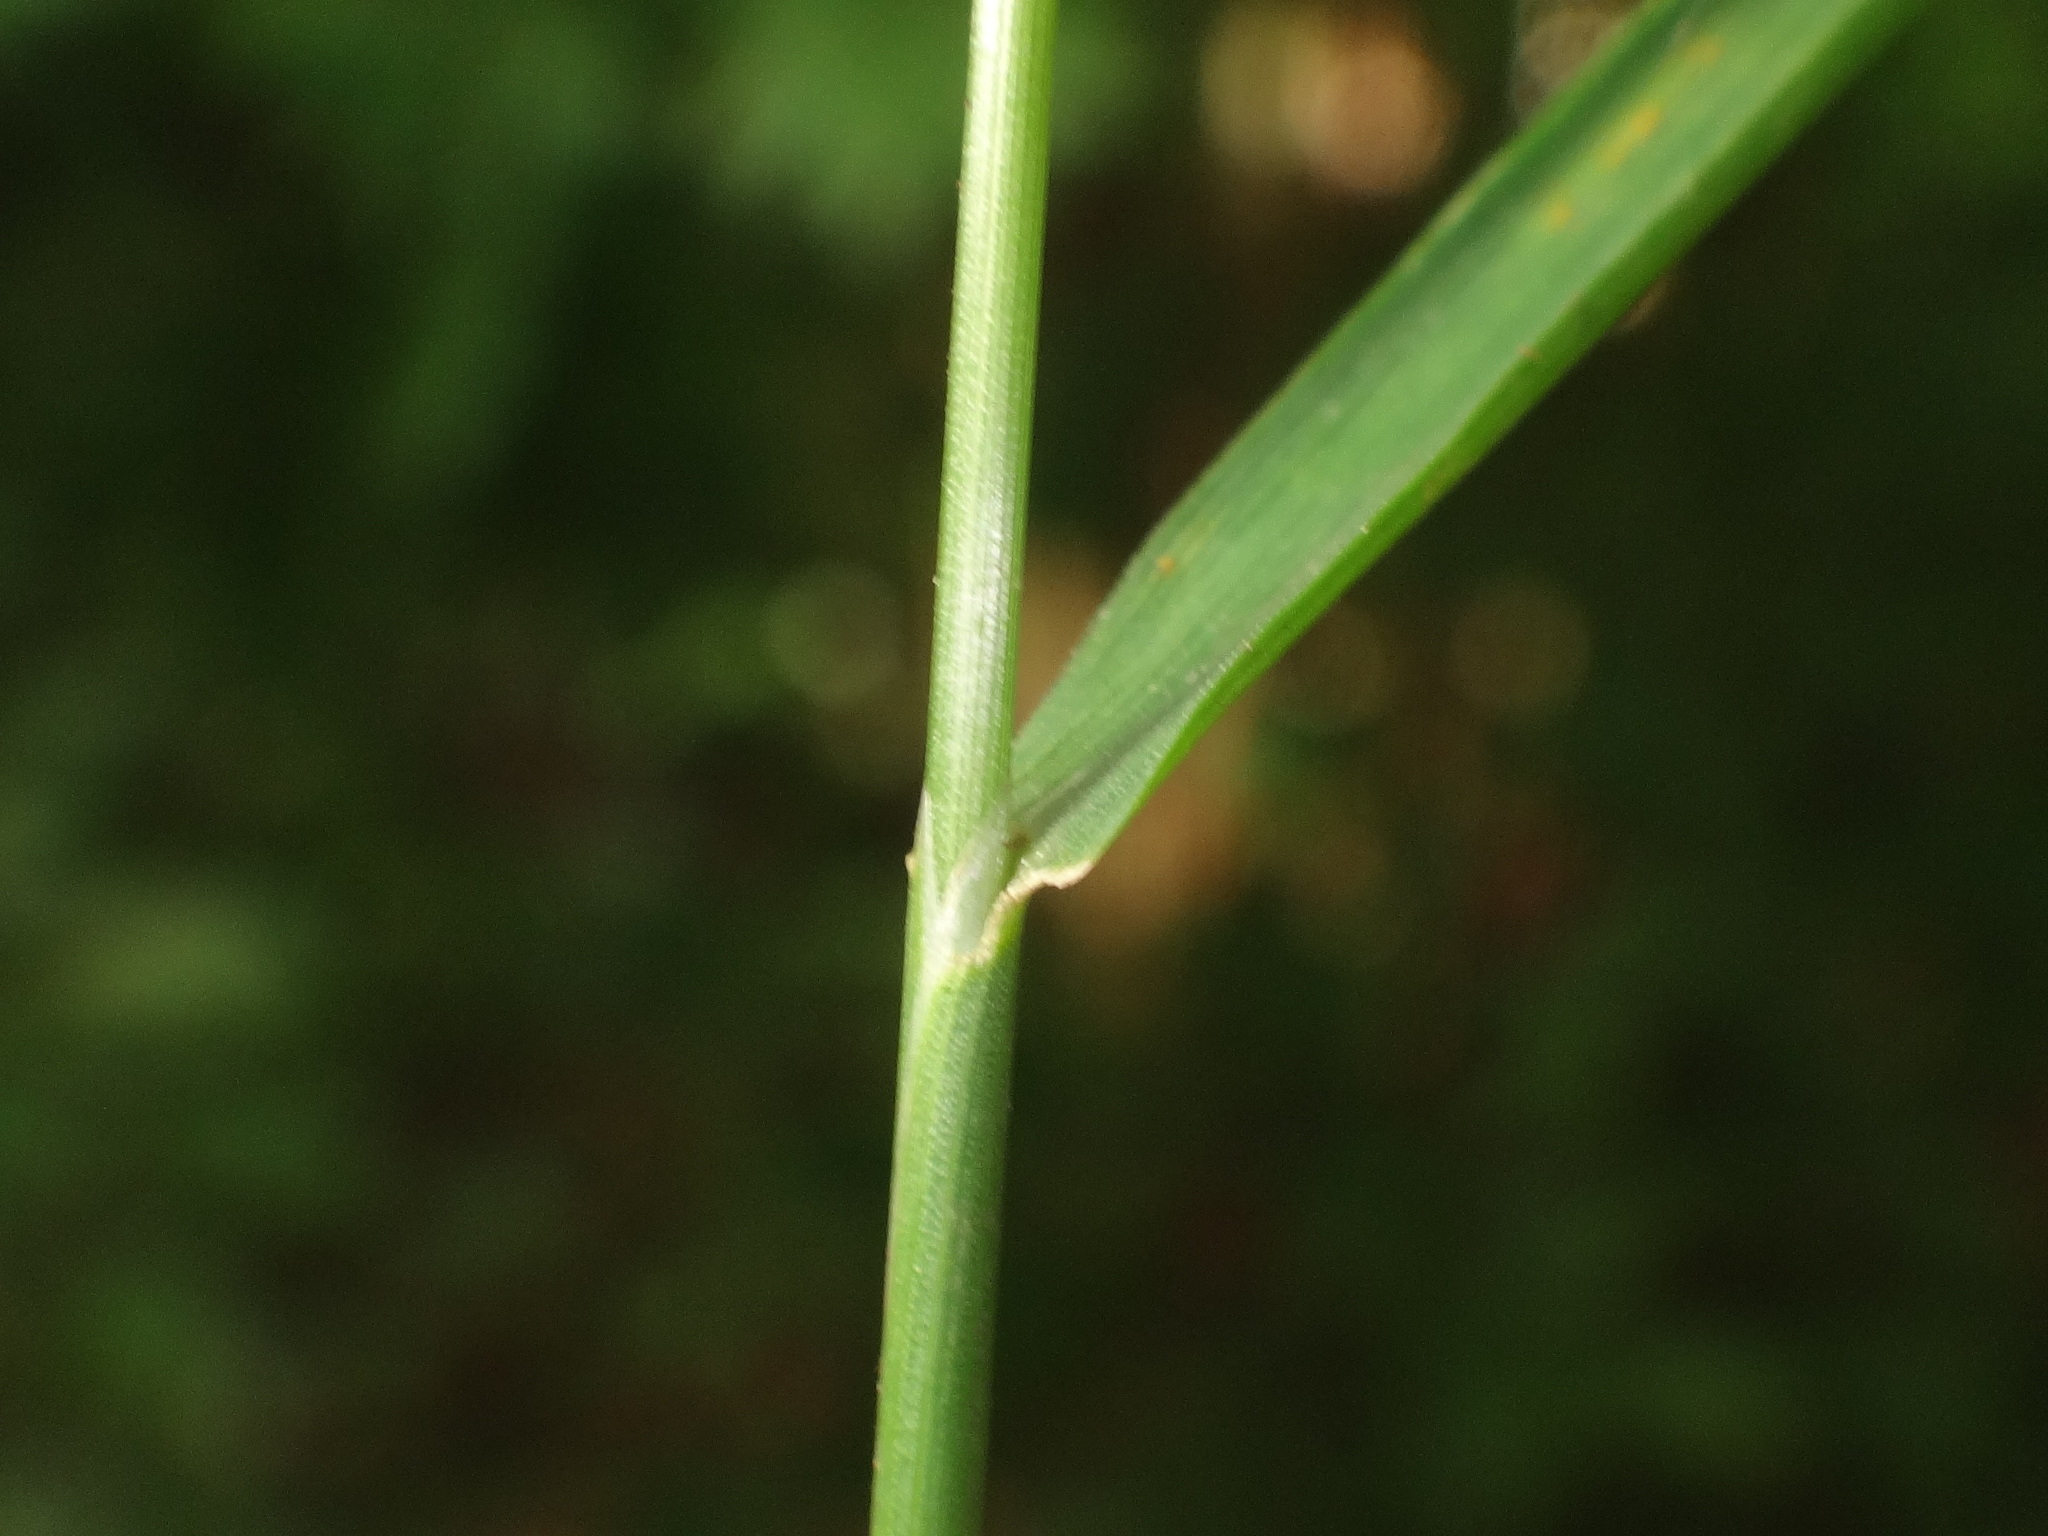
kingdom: Plantae
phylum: Tracheophyta
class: Liliopsida
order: Poales
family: Poaceae
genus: Agrostis
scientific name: Agrostis capillaris
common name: Colonial bentgrass
